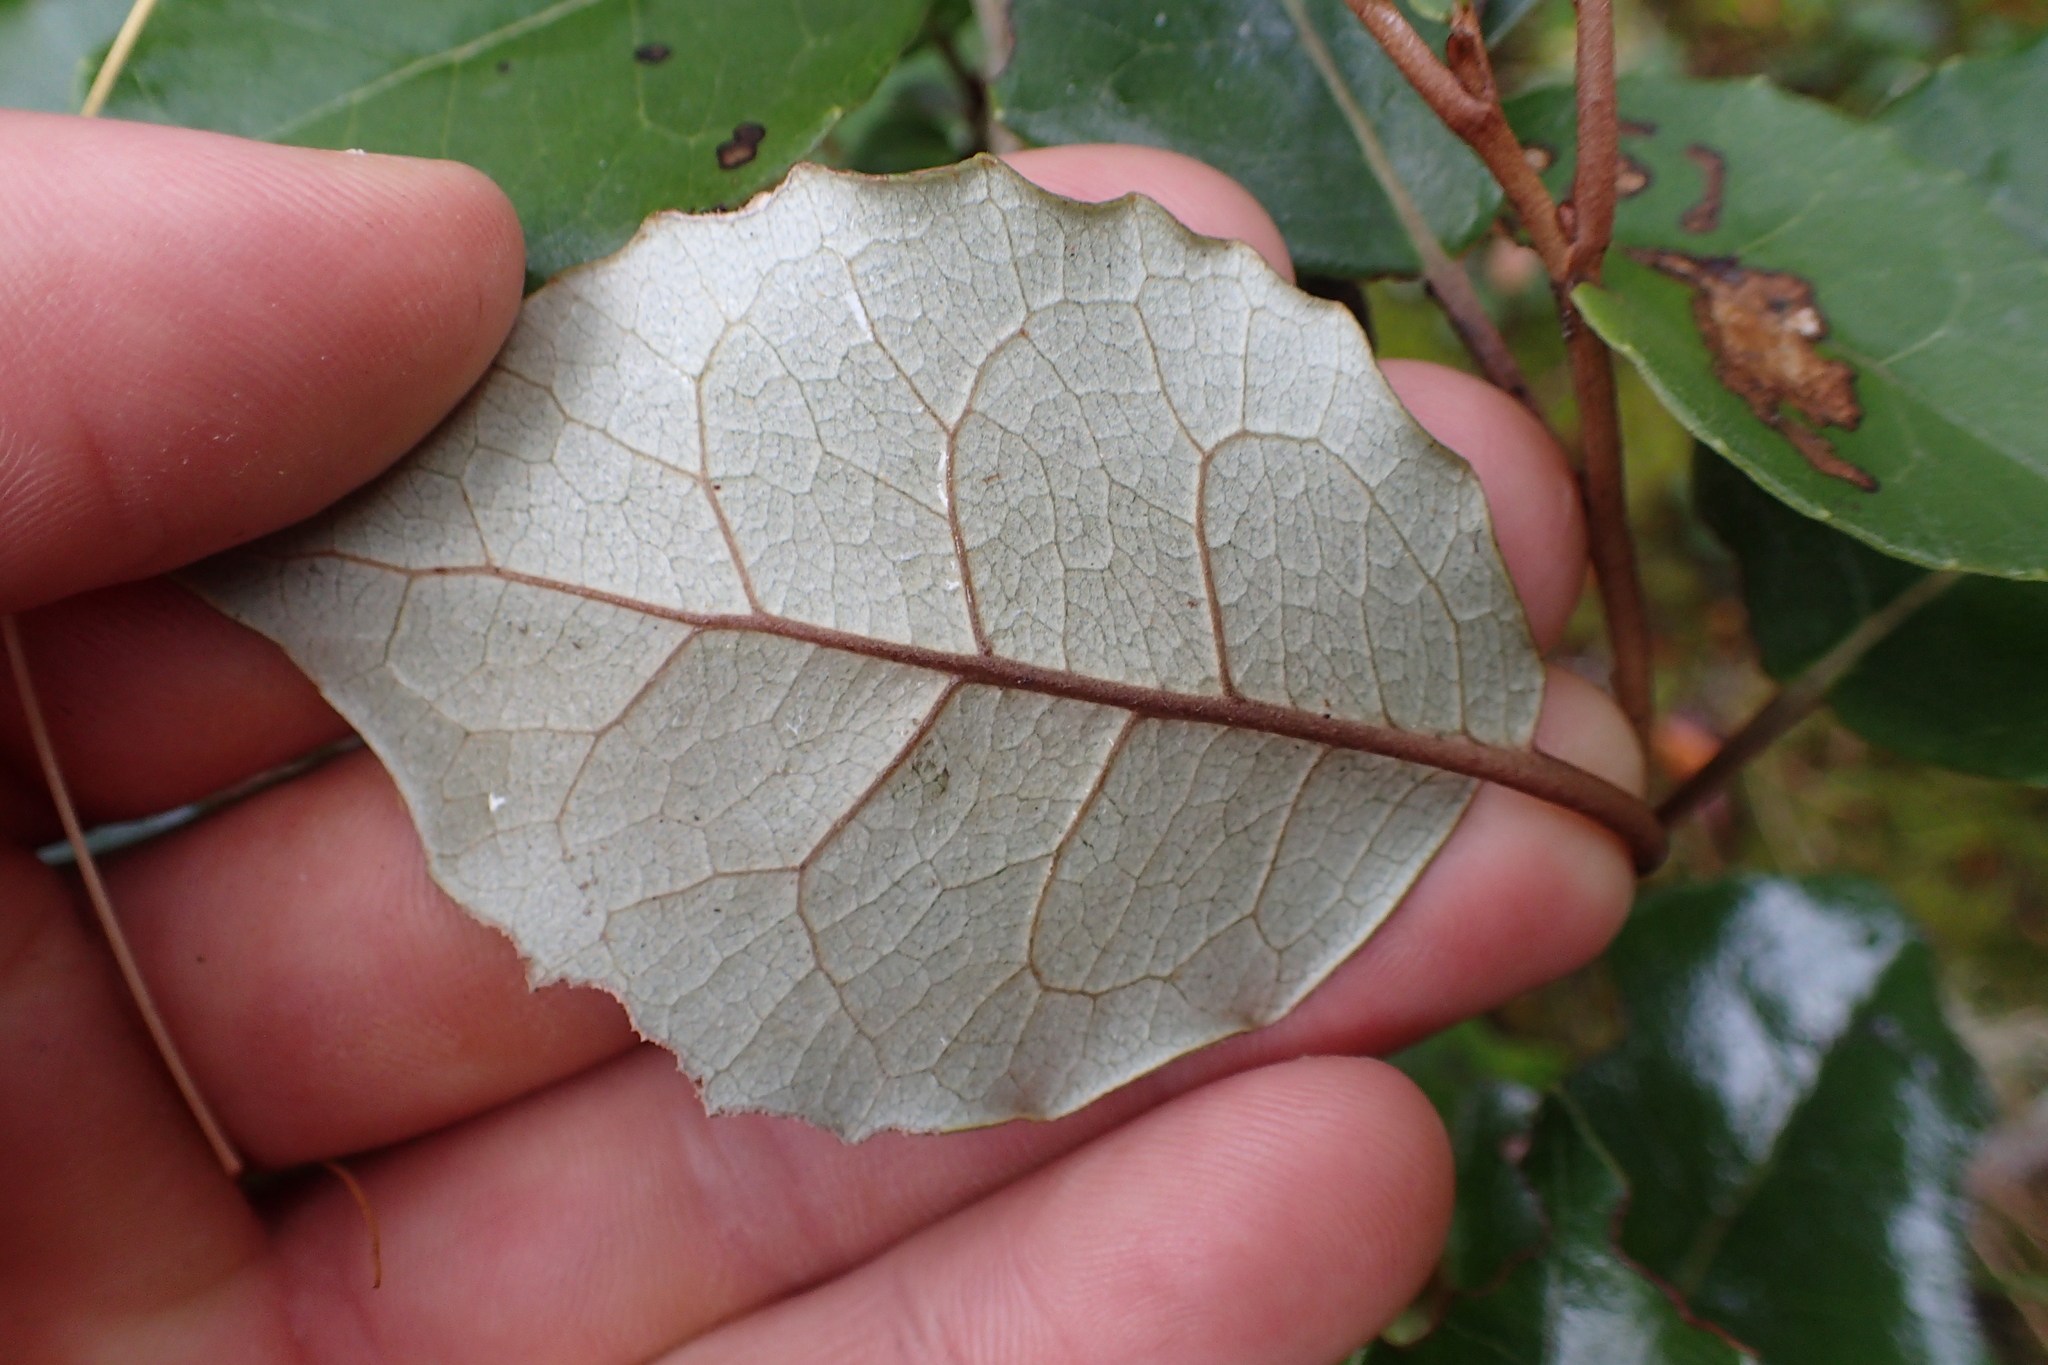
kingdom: Plantae
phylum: Tracheophyta
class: Magnoliopsida
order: Asterales
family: Asteraceae
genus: Olearia
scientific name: Olearia arborescens
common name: Glossy tree daisy
